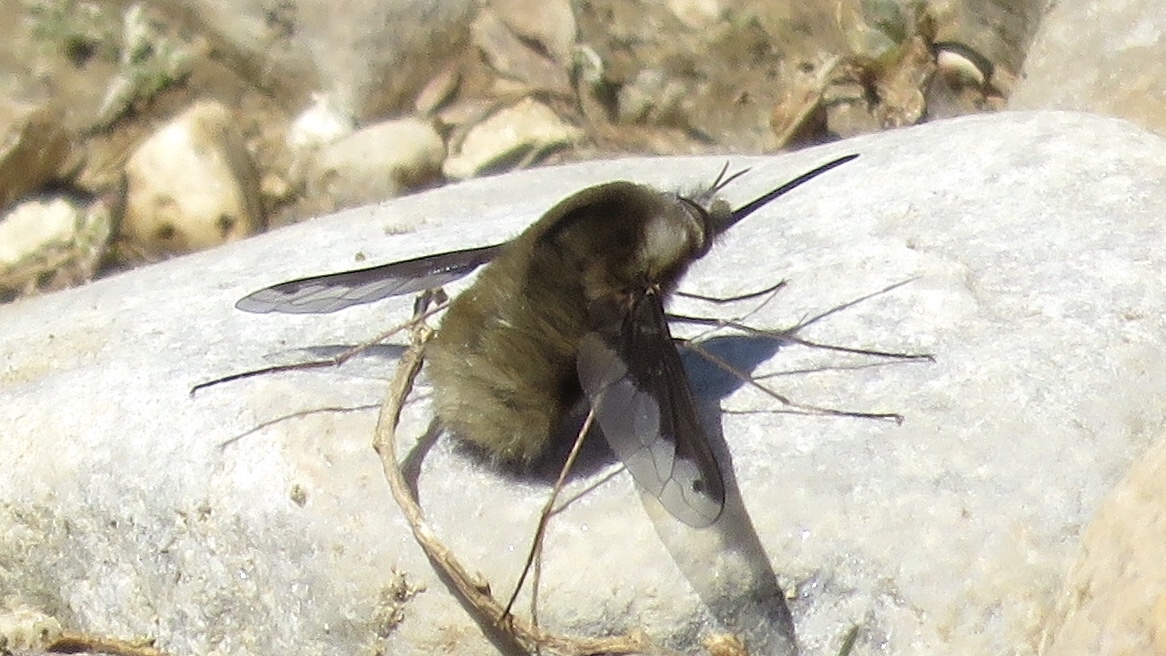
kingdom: Animalia
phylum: Arthropoda
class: Insecta
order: Diptera
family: Bombyliidae
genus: Bombylius
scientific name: Bombylius major
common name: Bee fly
